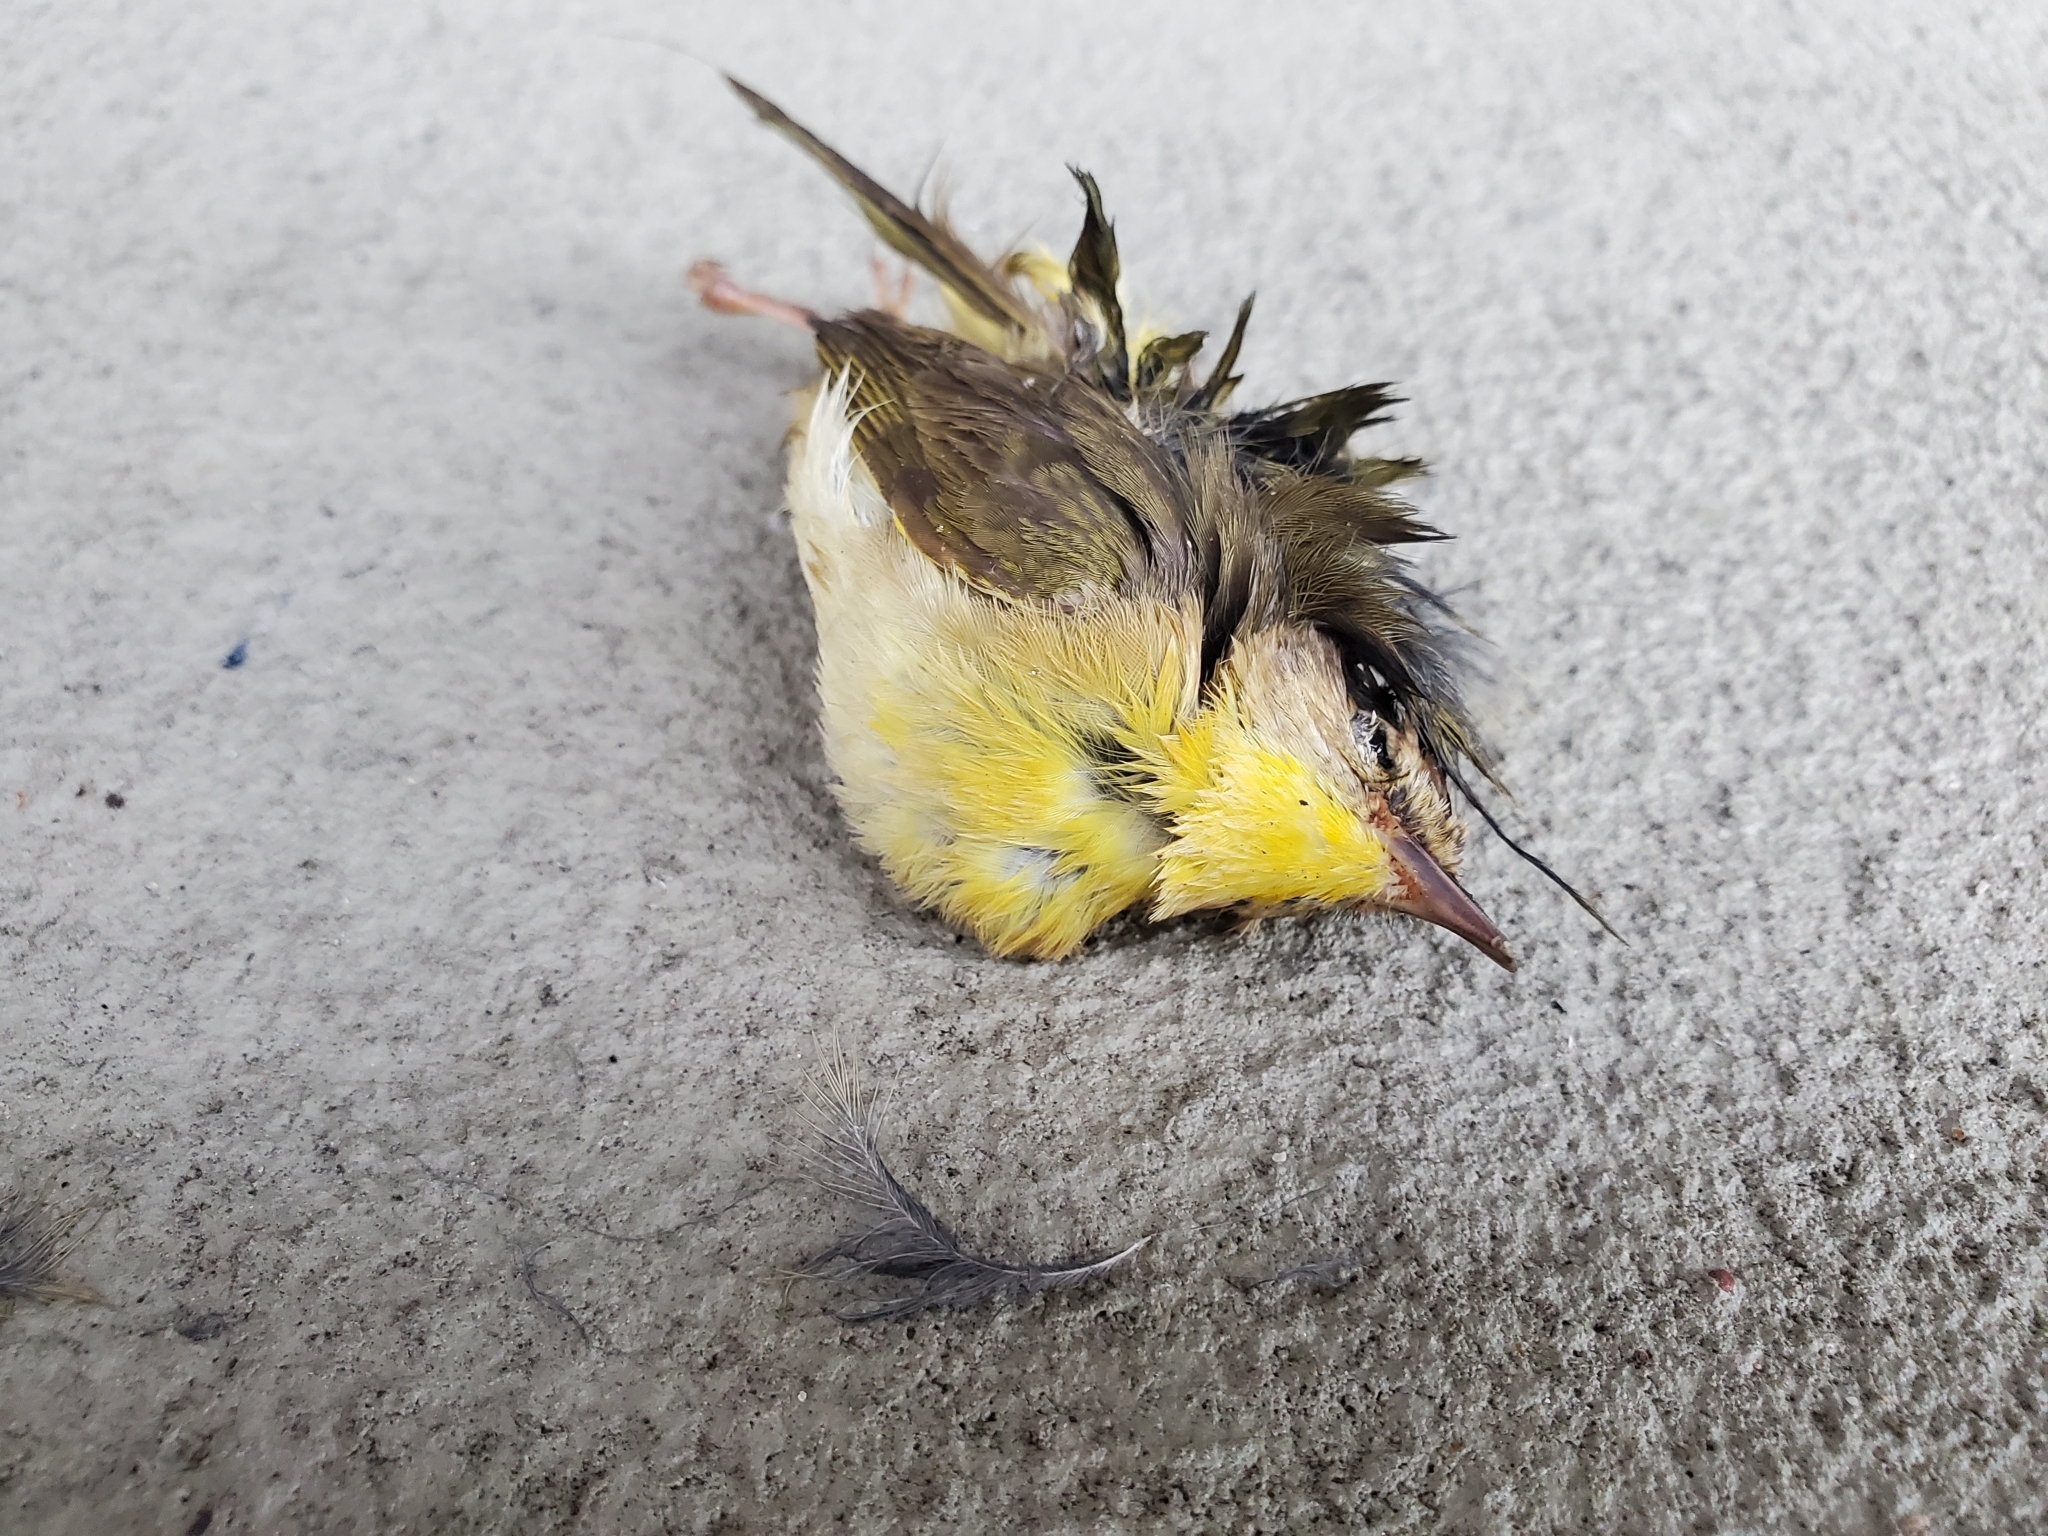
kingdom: Animalia
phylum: Chordata
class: Aves
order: Passeriformes
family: Parulidae
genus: Geothlypis
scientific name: Geothlypis trichas
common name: Common yellowthroat
